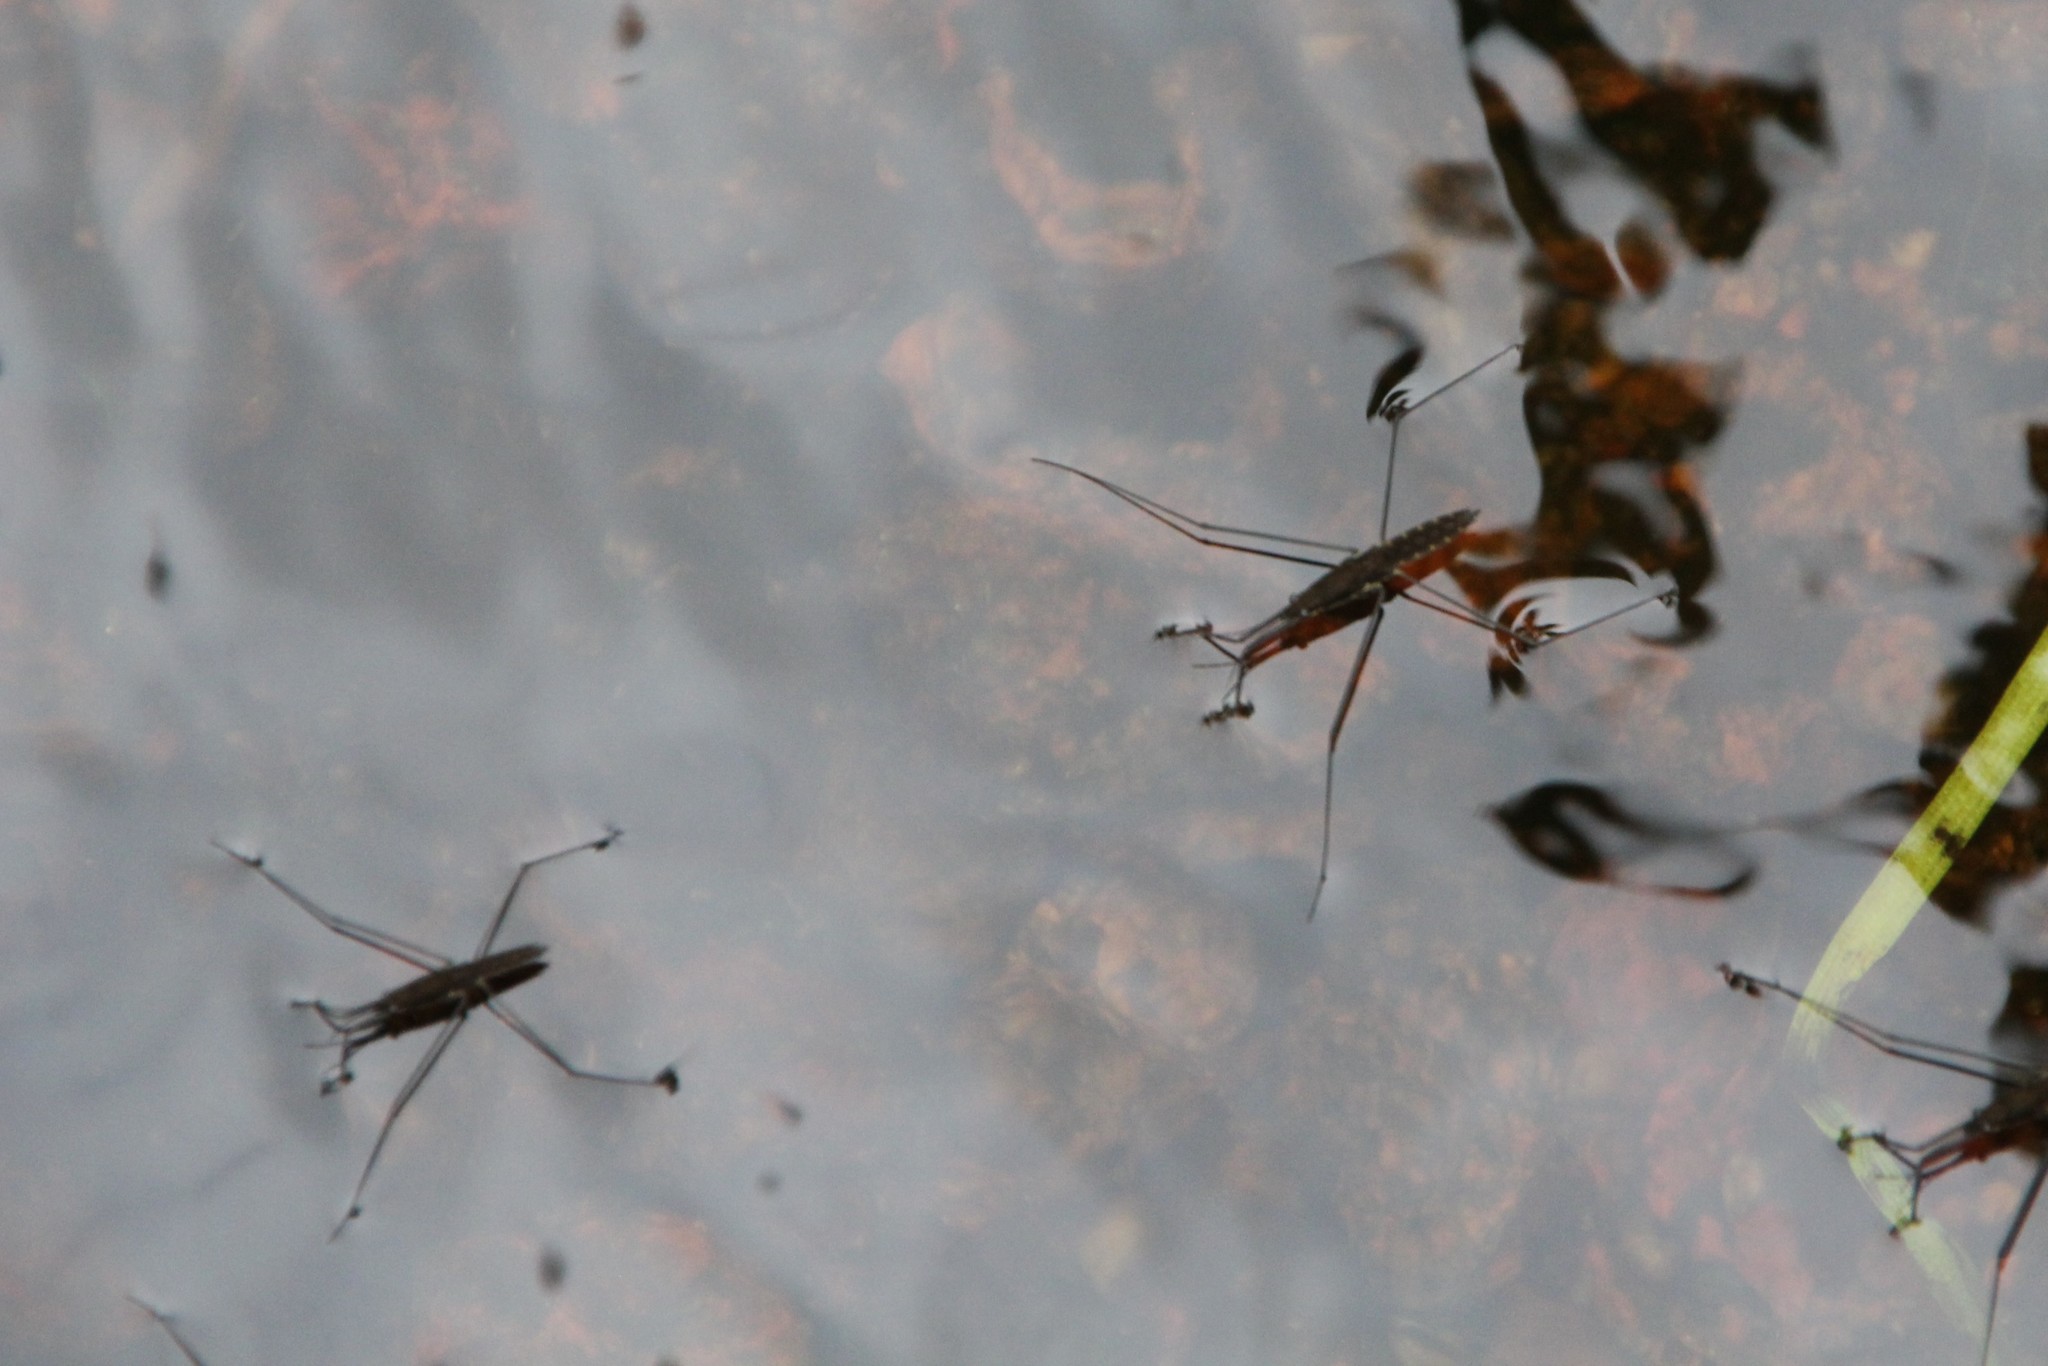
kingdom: Animalia
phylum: Arthropoda
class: Insecta
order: Hemiptera
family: Gerridae
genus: Aquarius
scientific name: Aquarius najas
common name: River skater
